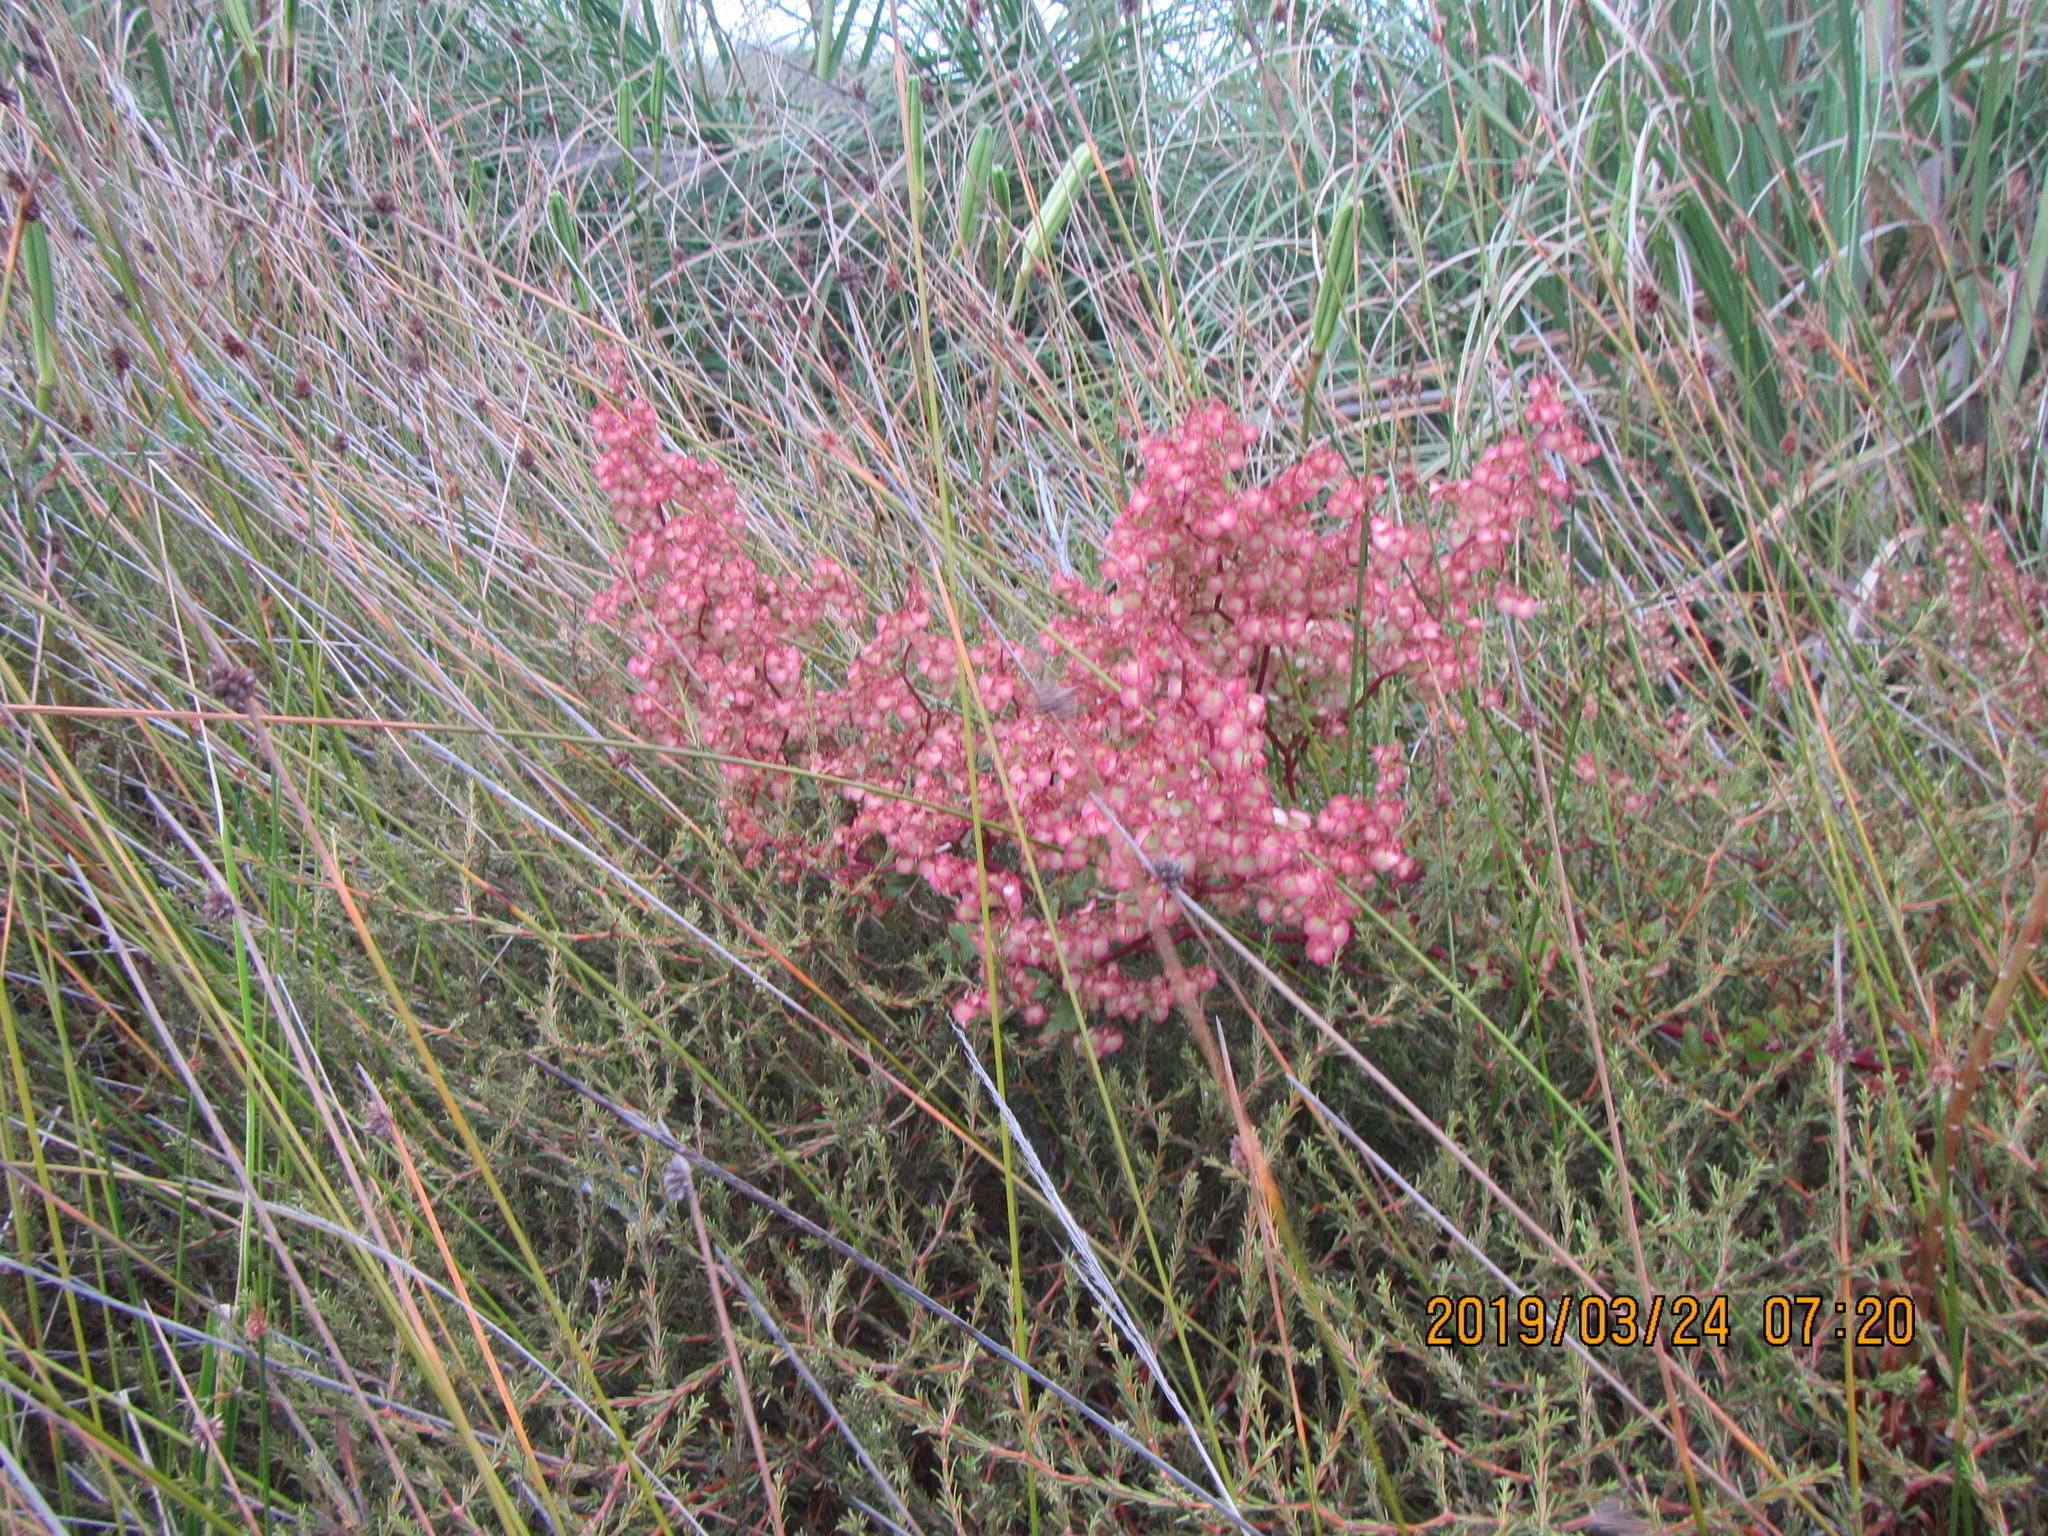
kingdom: Plantae
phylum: Tracheophyta
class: Magnoliopsida
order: Caryophyllales
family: Polygonaceae
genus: Rumex
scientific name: Rumex sagittatus
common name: Climbing dock
